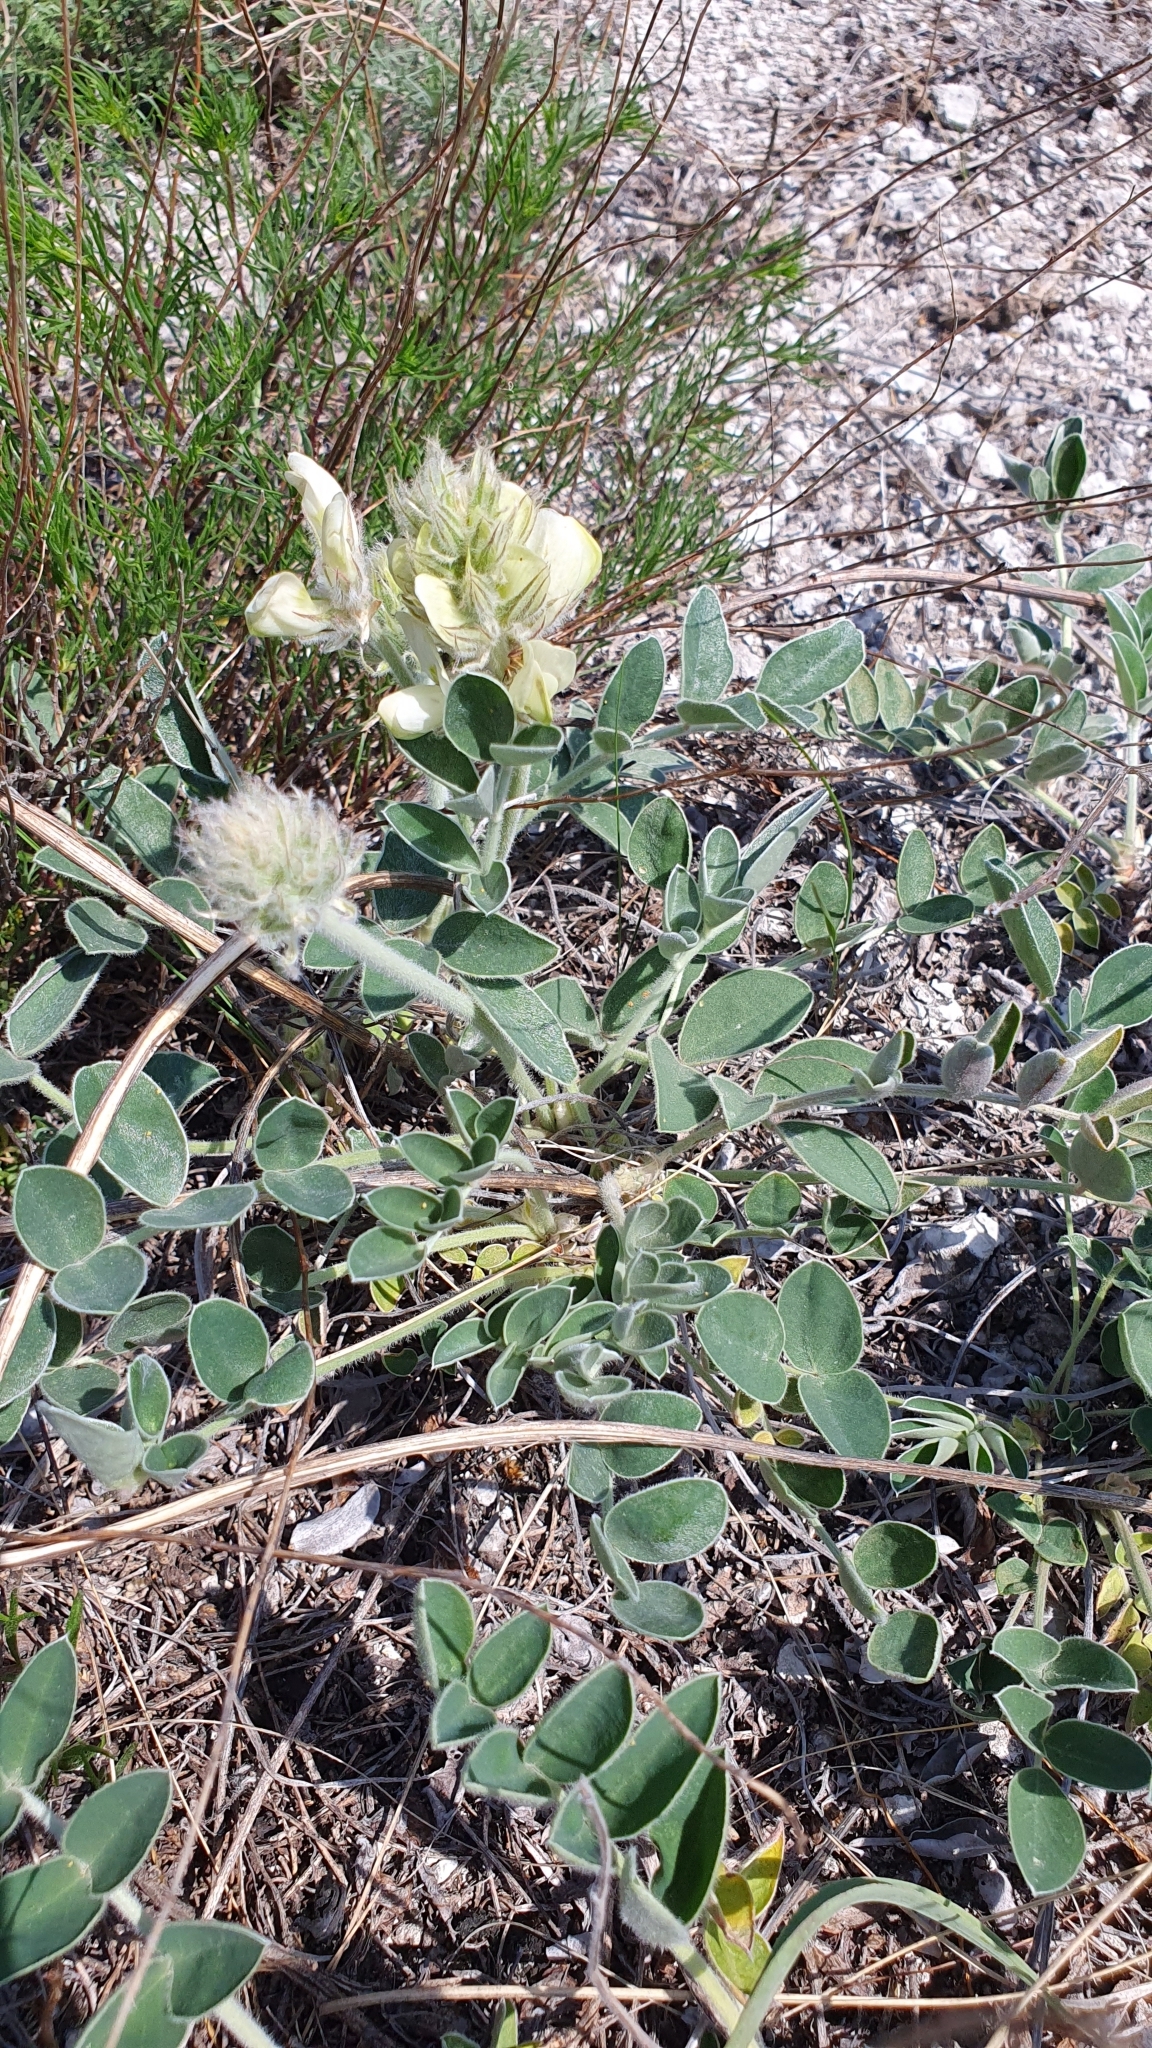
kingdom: Plantae
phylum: Tracheophyta
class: Magnoliopsida
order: Fabales
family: Fabaceae
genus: Hedysarum
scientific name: Hedysarum grandiflorum
